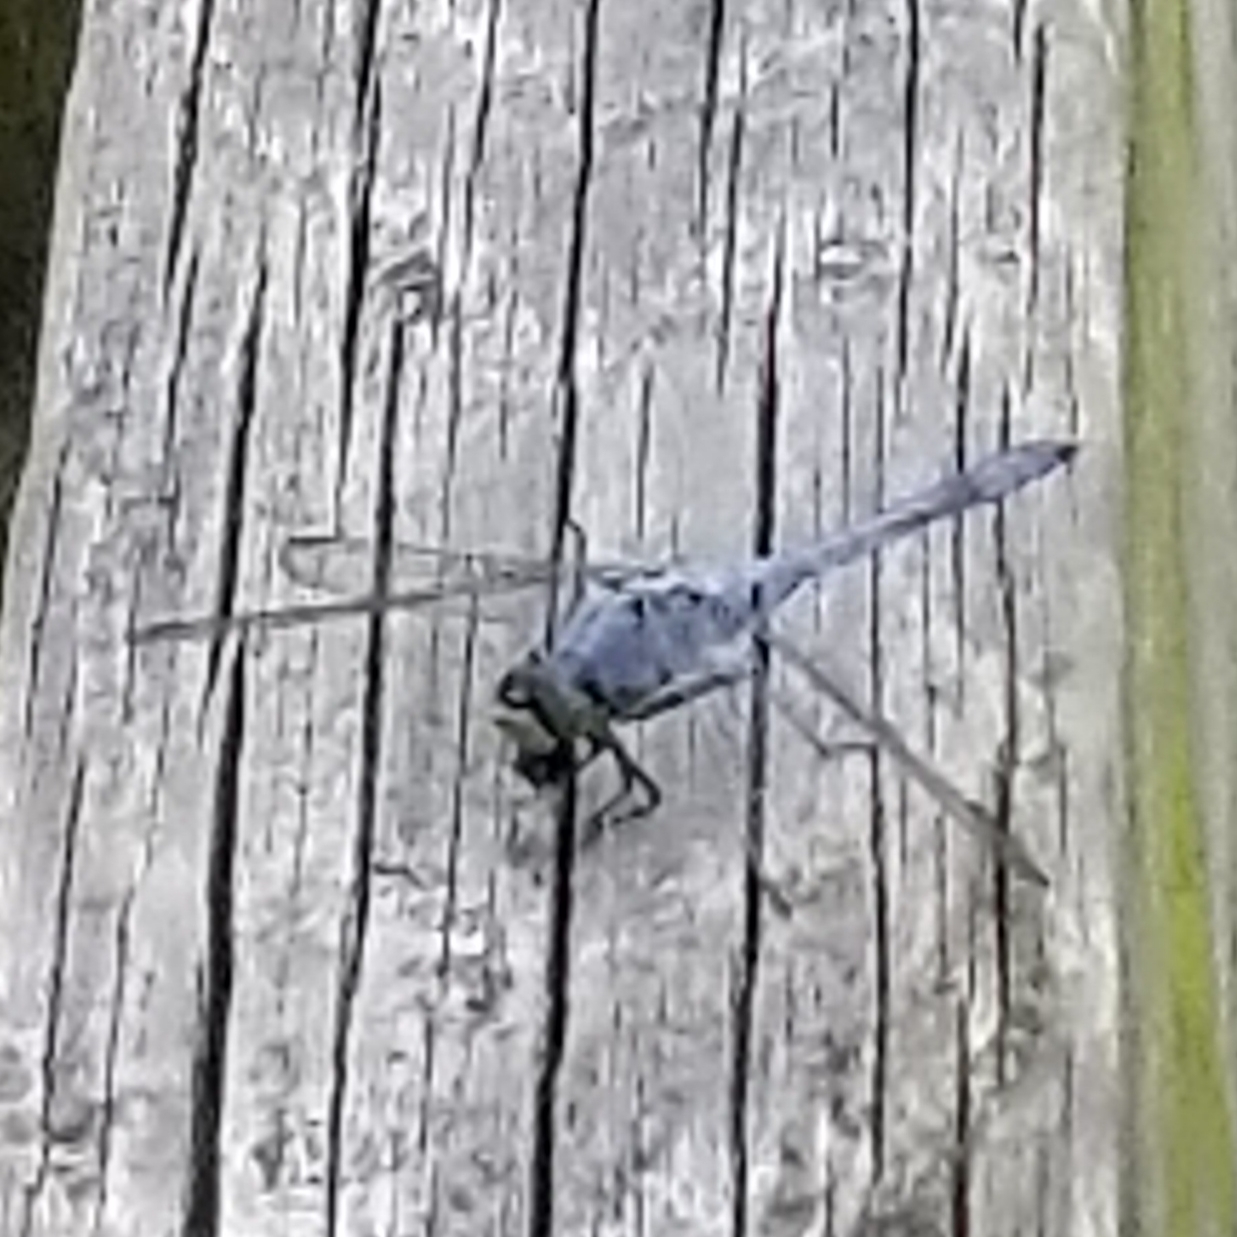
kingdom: Animalia
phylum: Arthropoda
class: Insecta
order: Odonata
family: Libellulidae
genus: Erythemis
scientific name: Erythemis simplicicollis
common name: Eastern pondhawk
